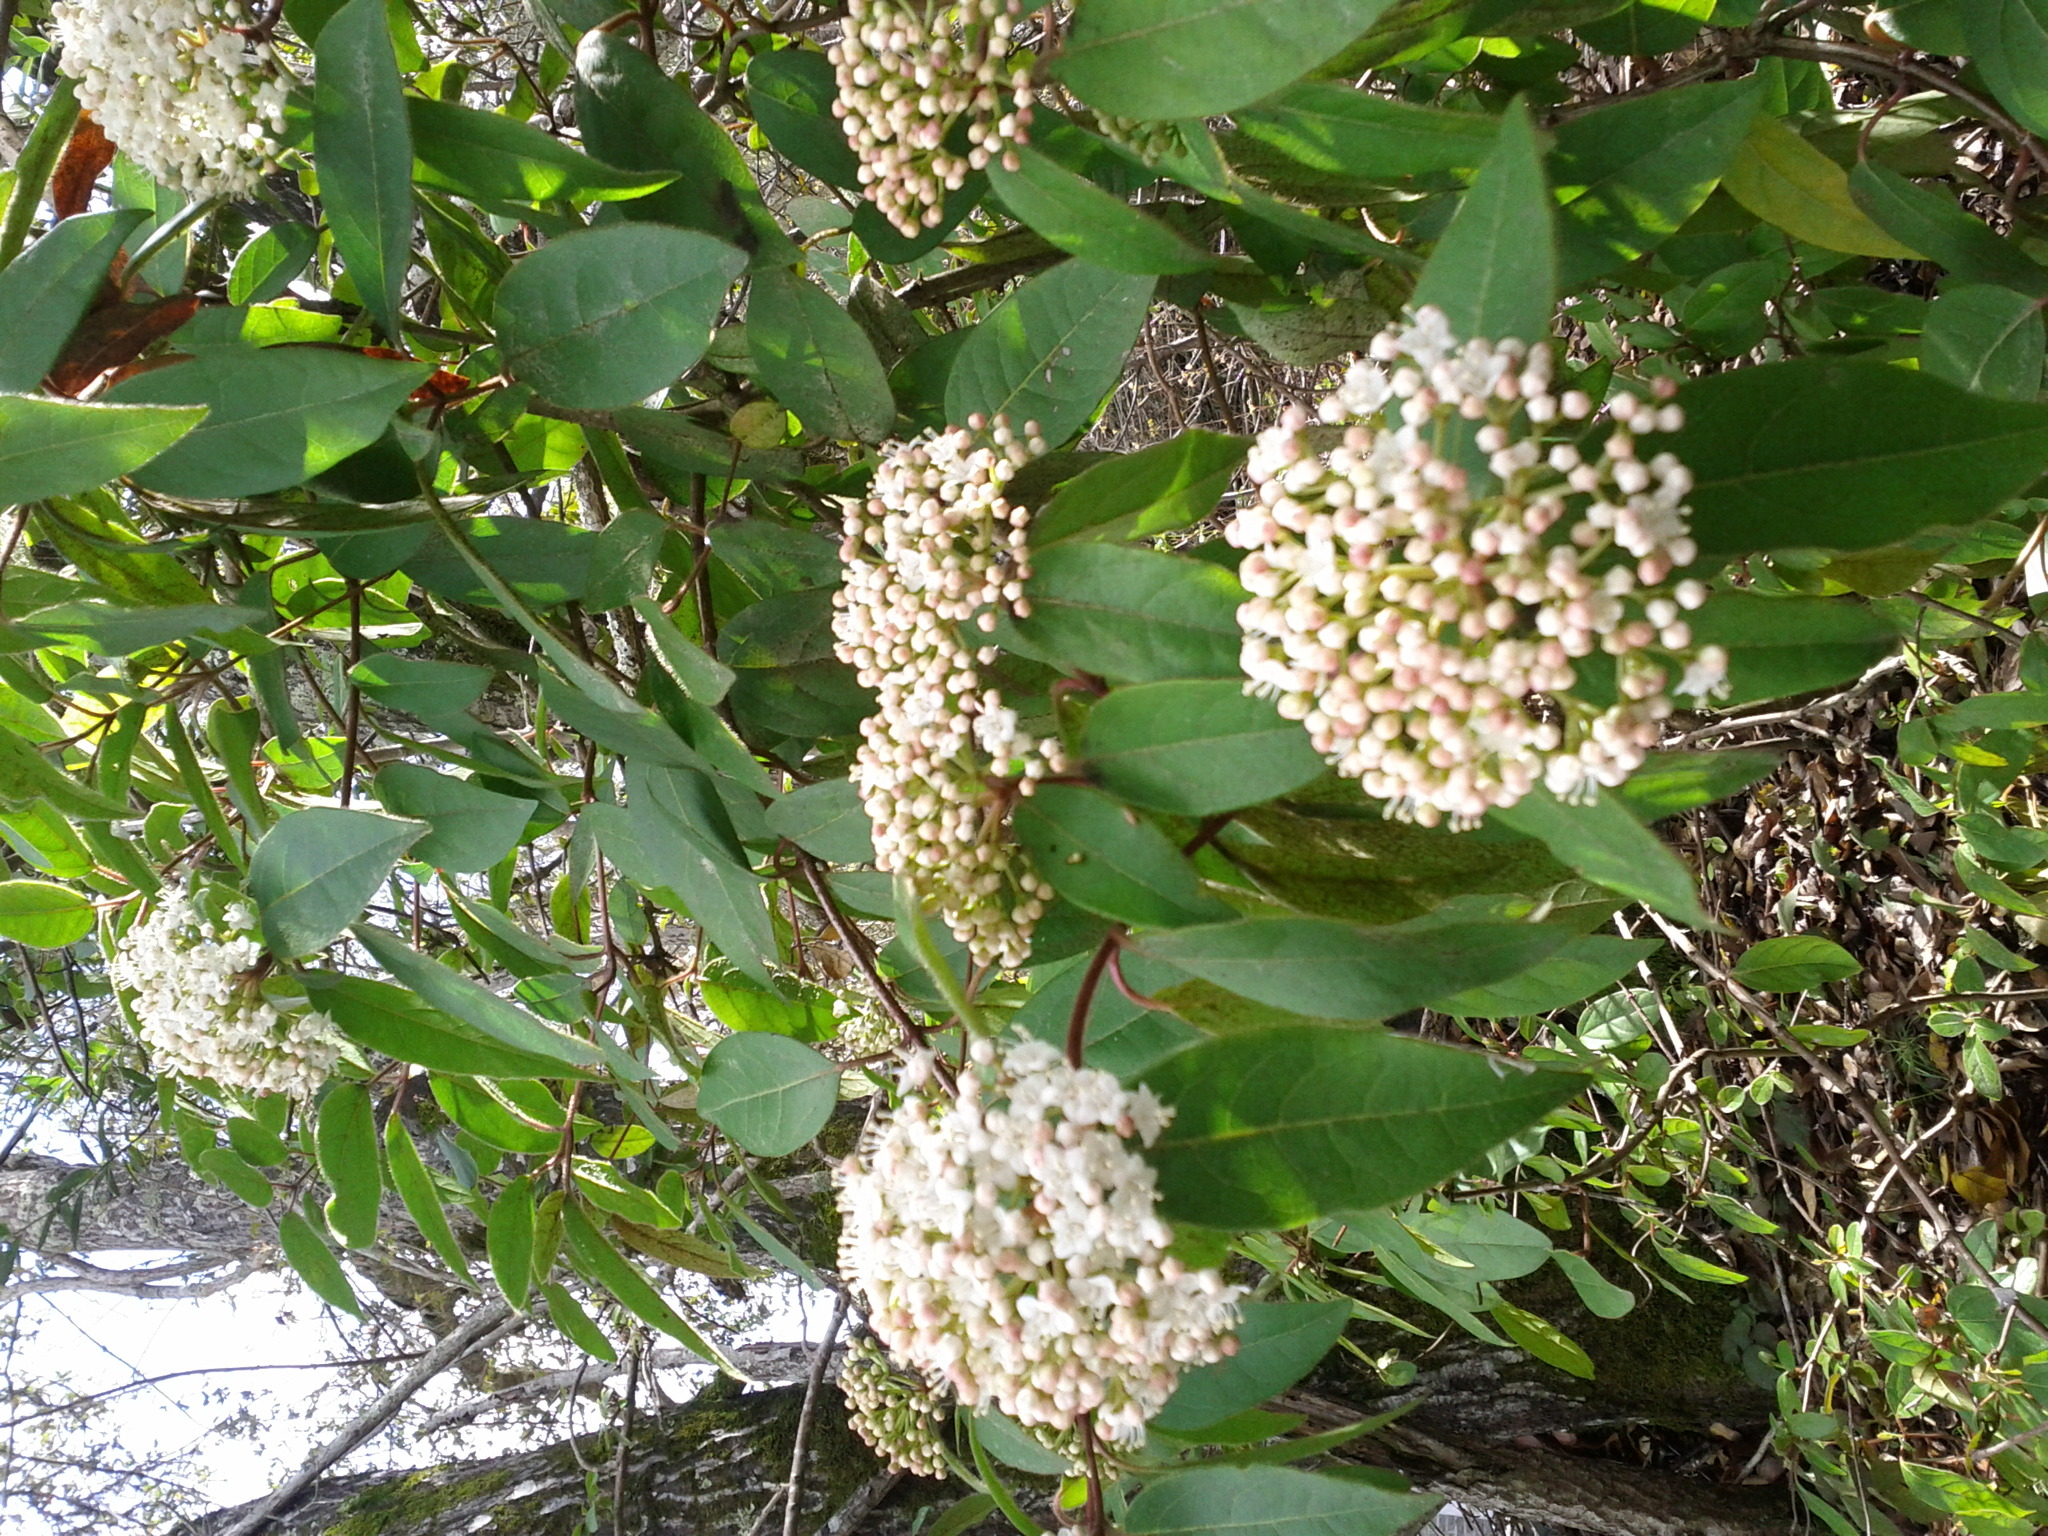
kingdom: Plantae
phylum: Tracheophyta
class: Magnoliopsida
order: Dipsacales
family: Viburnaceae
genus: Viburnum
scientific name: Viburnum tinus
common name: Laurustinus
